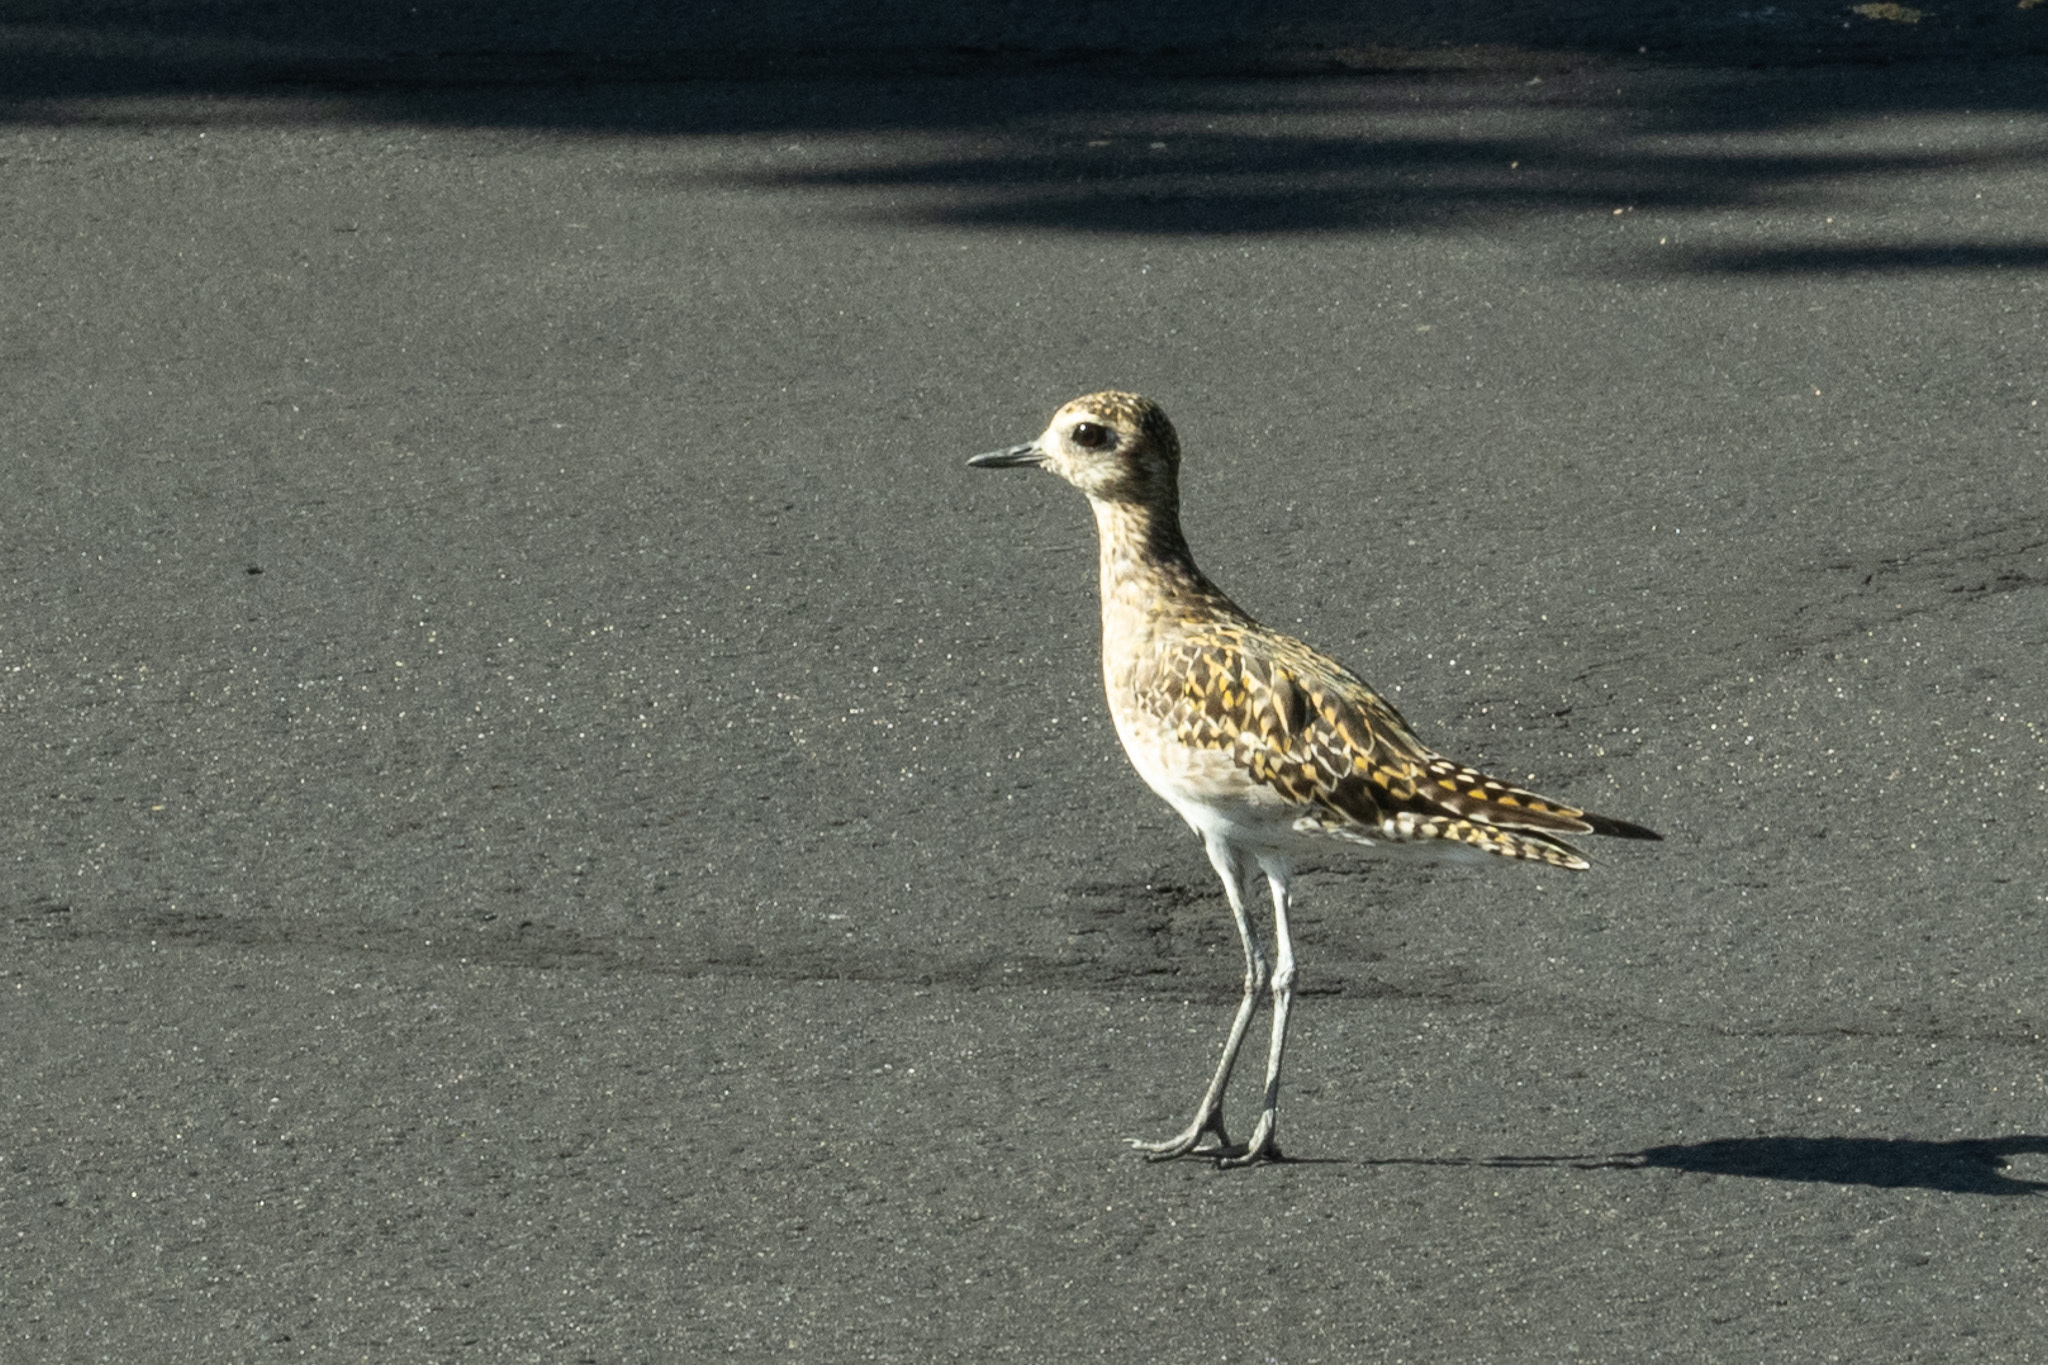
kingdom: Animalia
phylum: Chordata
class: Aves
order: Charadriiformes
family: Charadriidae
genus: Pluvialis
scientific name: Pluvialis fulva
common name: Pacific golden plover
